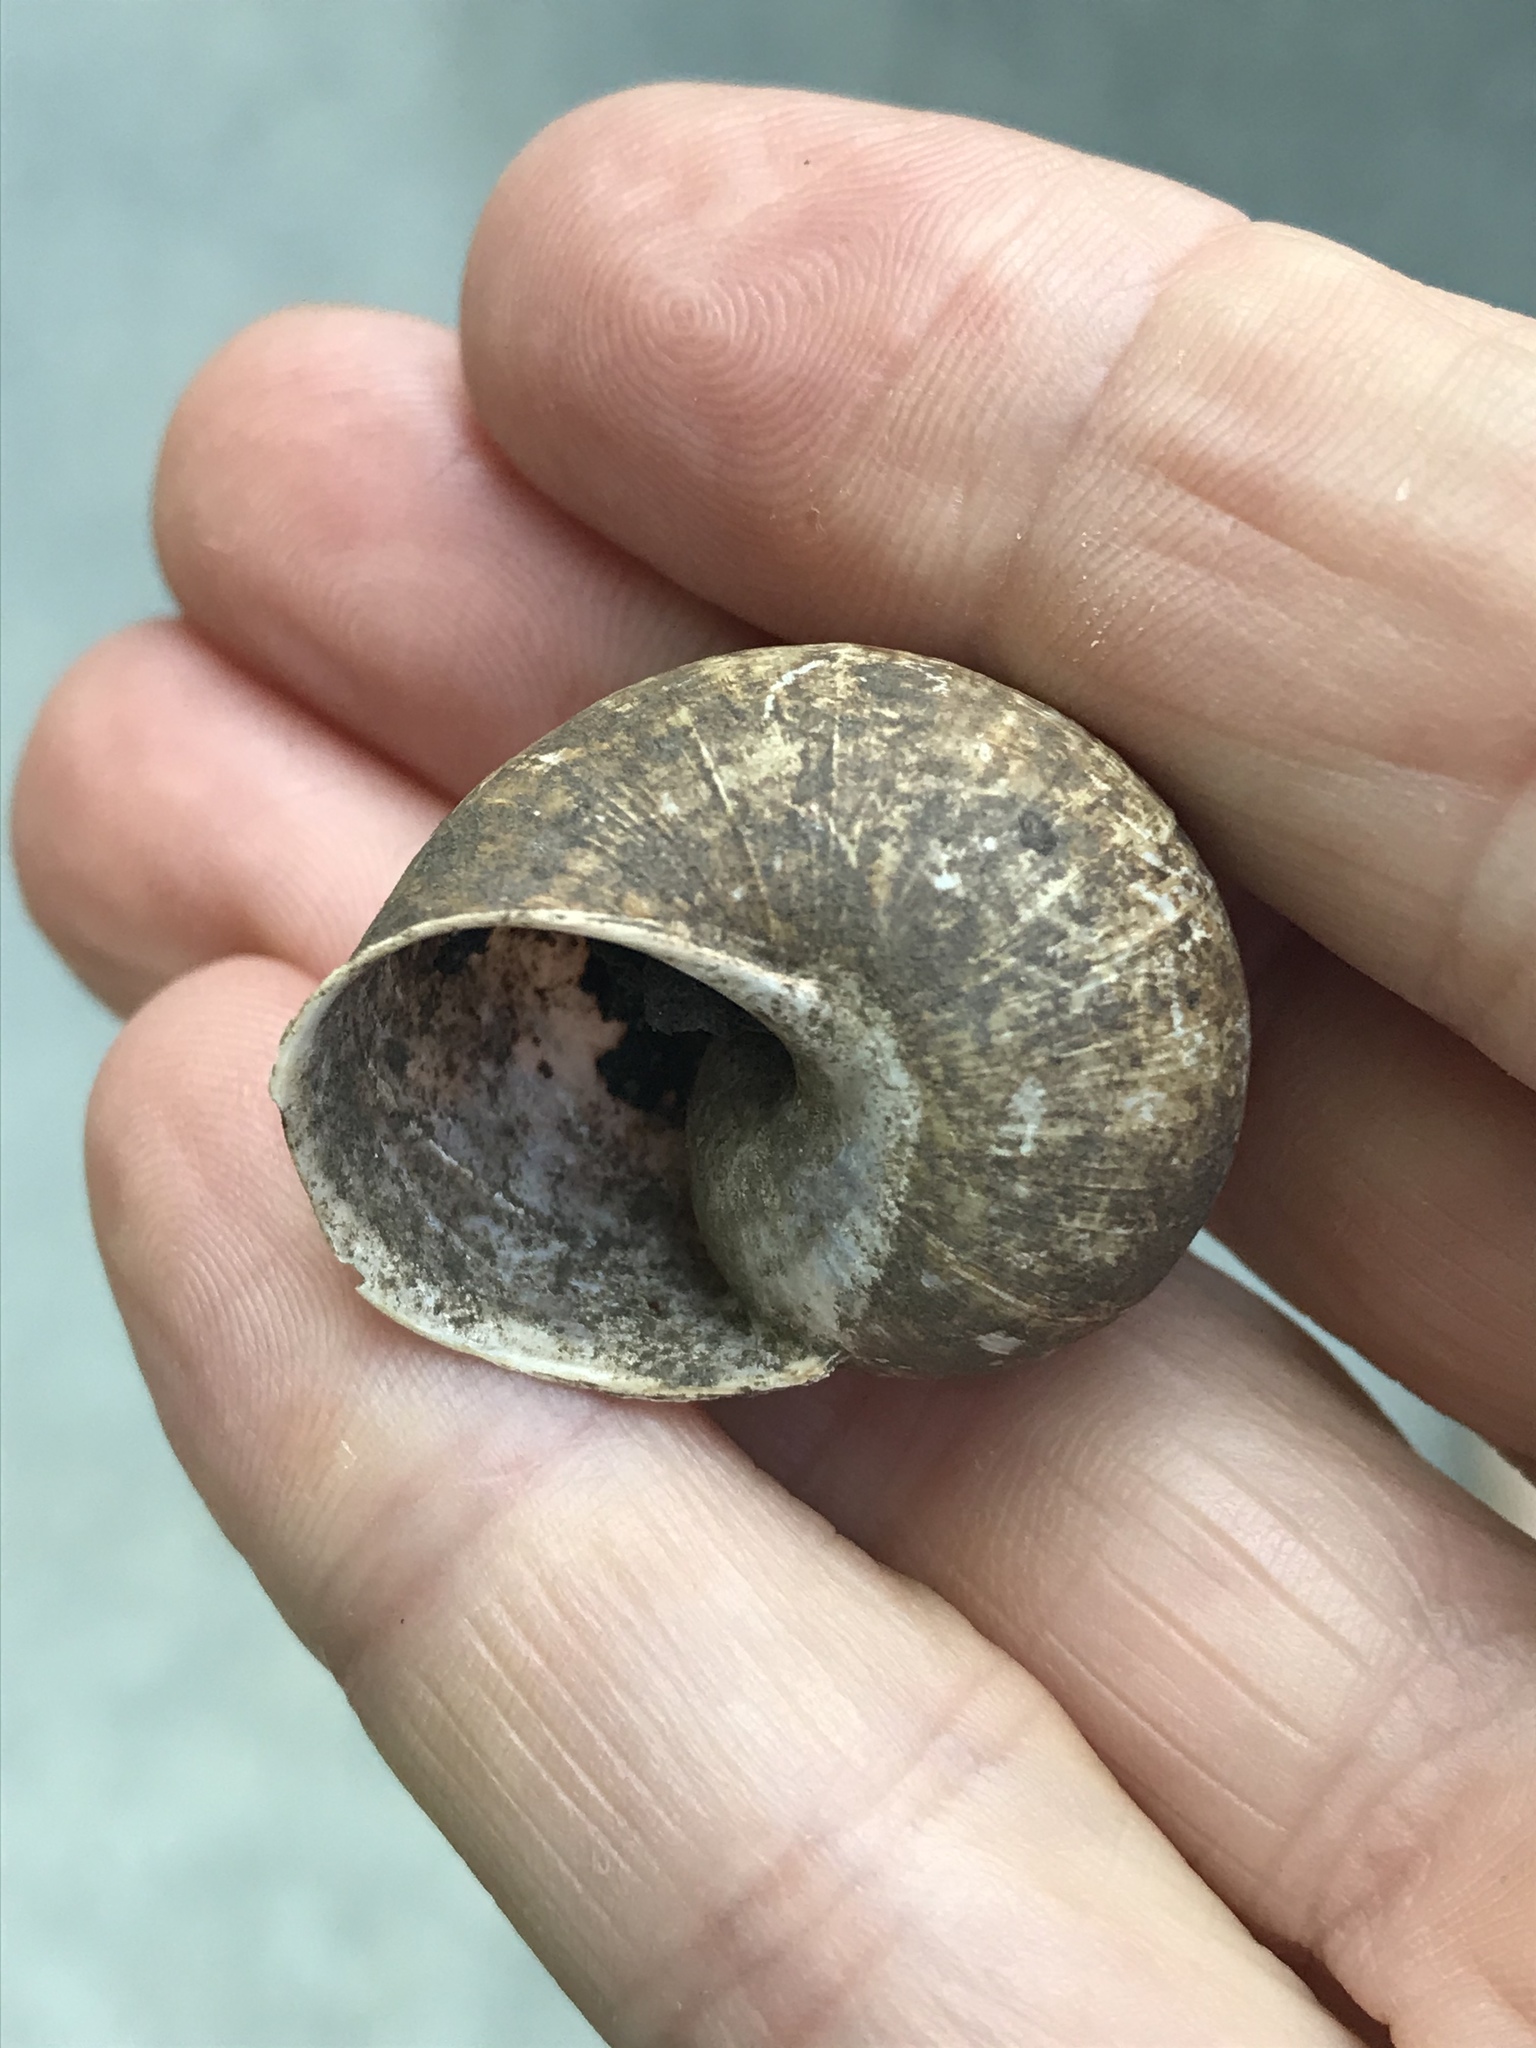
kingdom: Animalia
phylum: Mollusca
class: Gastropoda
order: Stylommatophora
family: Helicidae
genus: Cornu
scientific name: Cornu aspersum
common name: Brown garden snail
